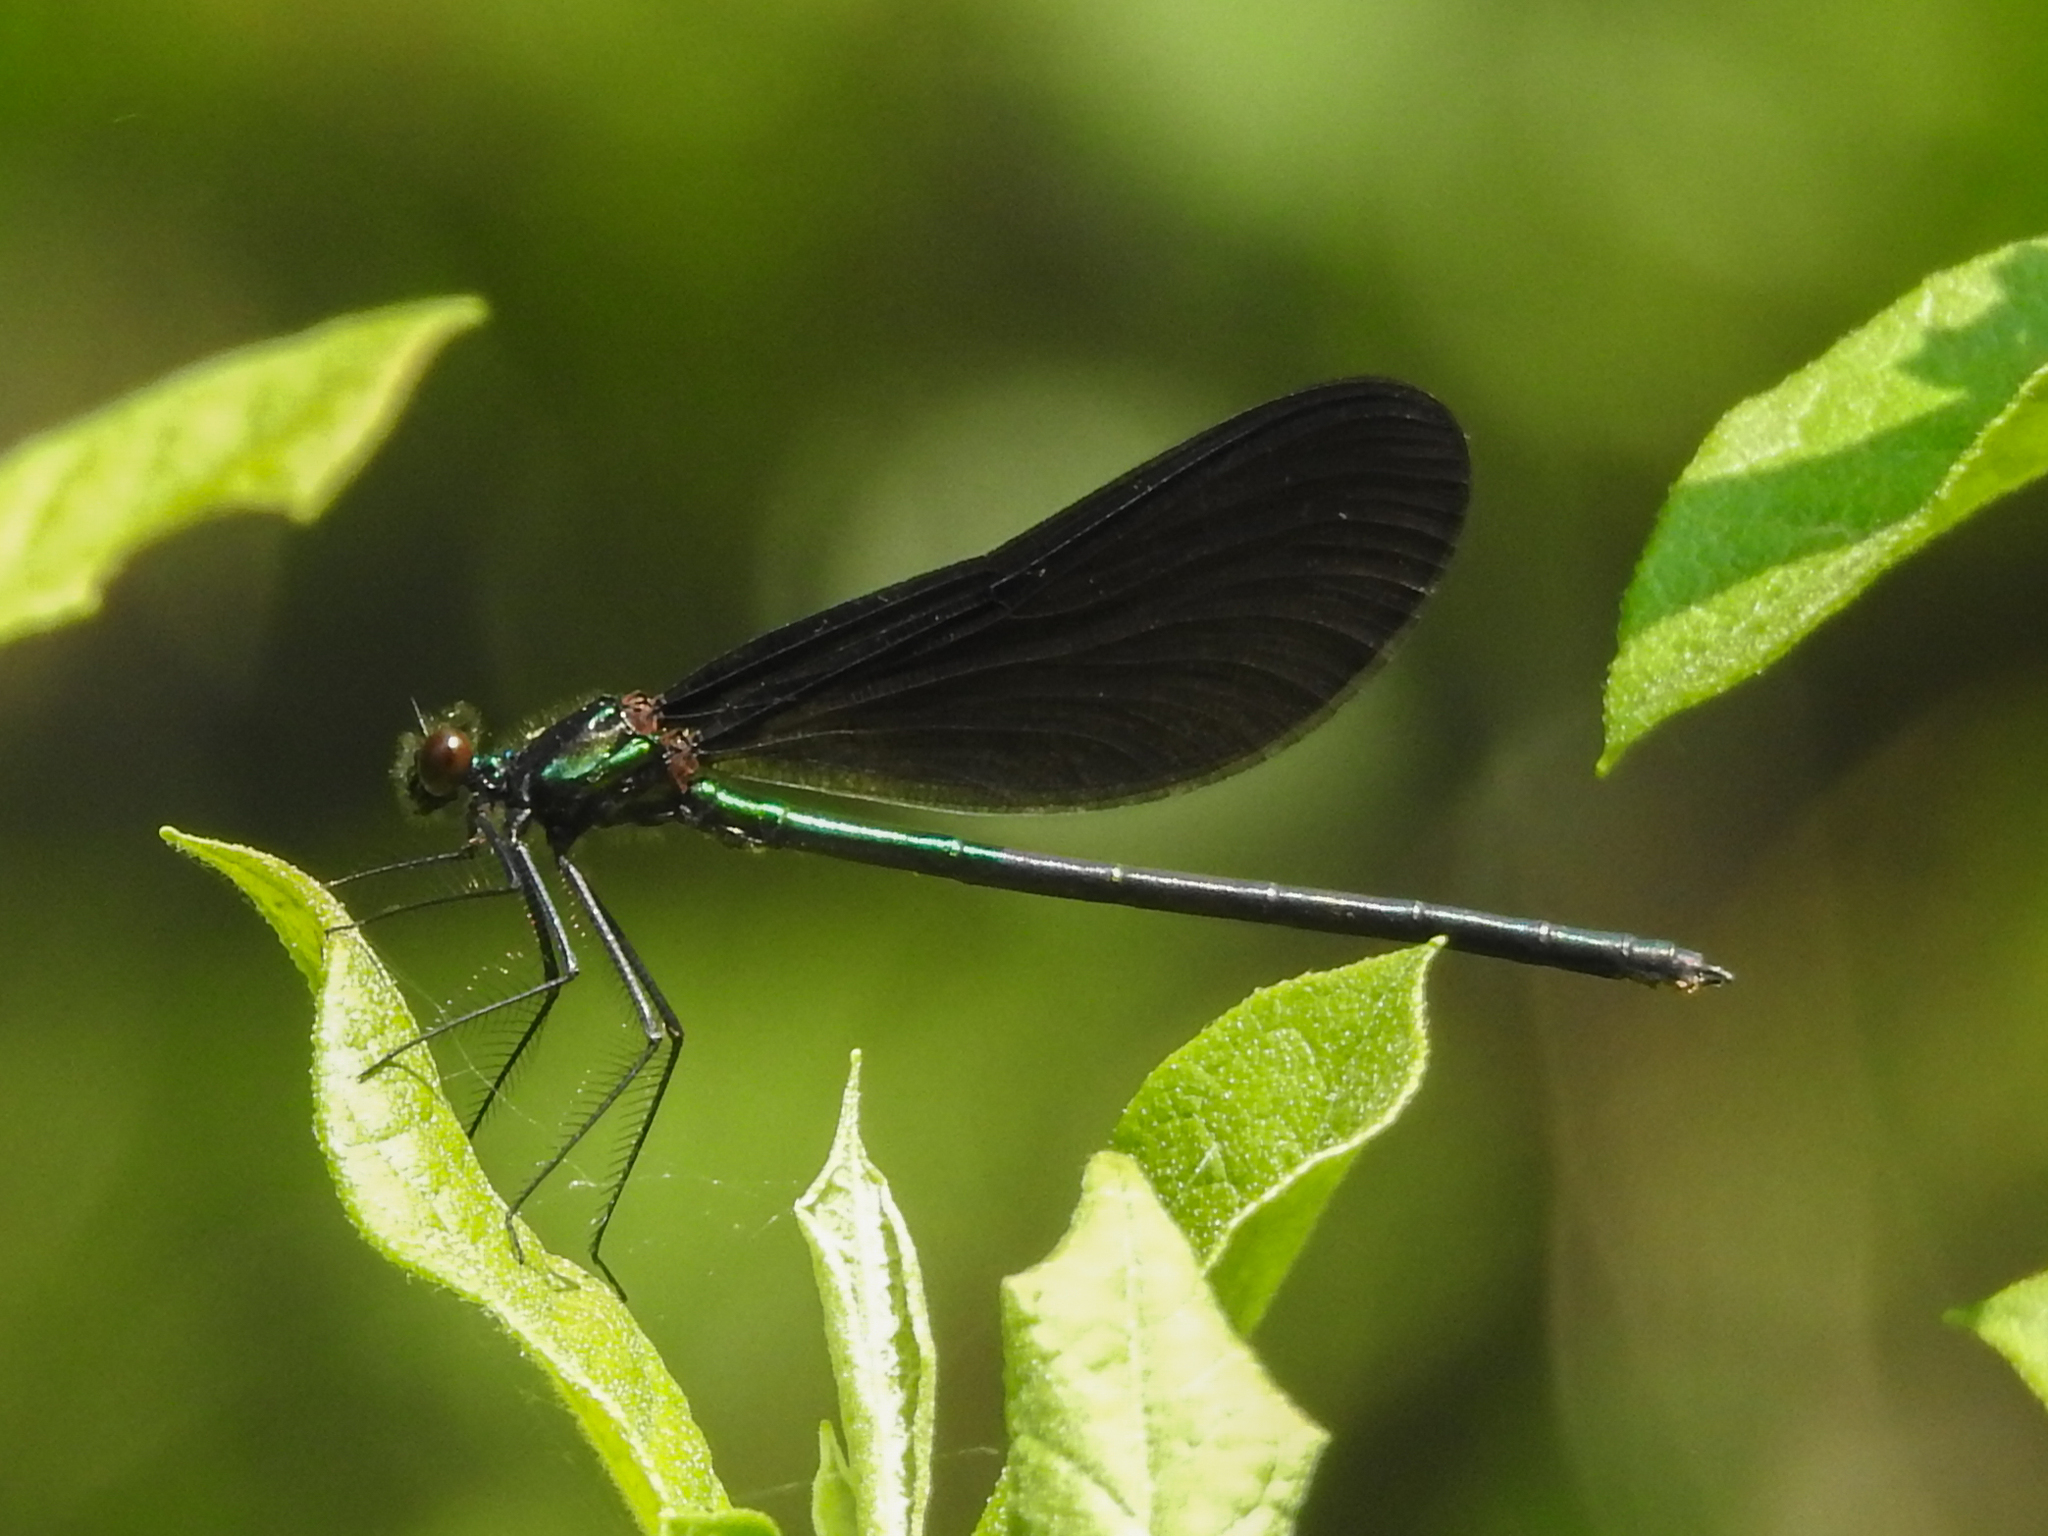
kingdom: Animalia
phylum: Arthropoda
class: Insecta
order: Odonata
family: Calopterygidae
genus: Calopteryx
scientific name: Calopteryx maculata
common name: Ebony jewelwing
